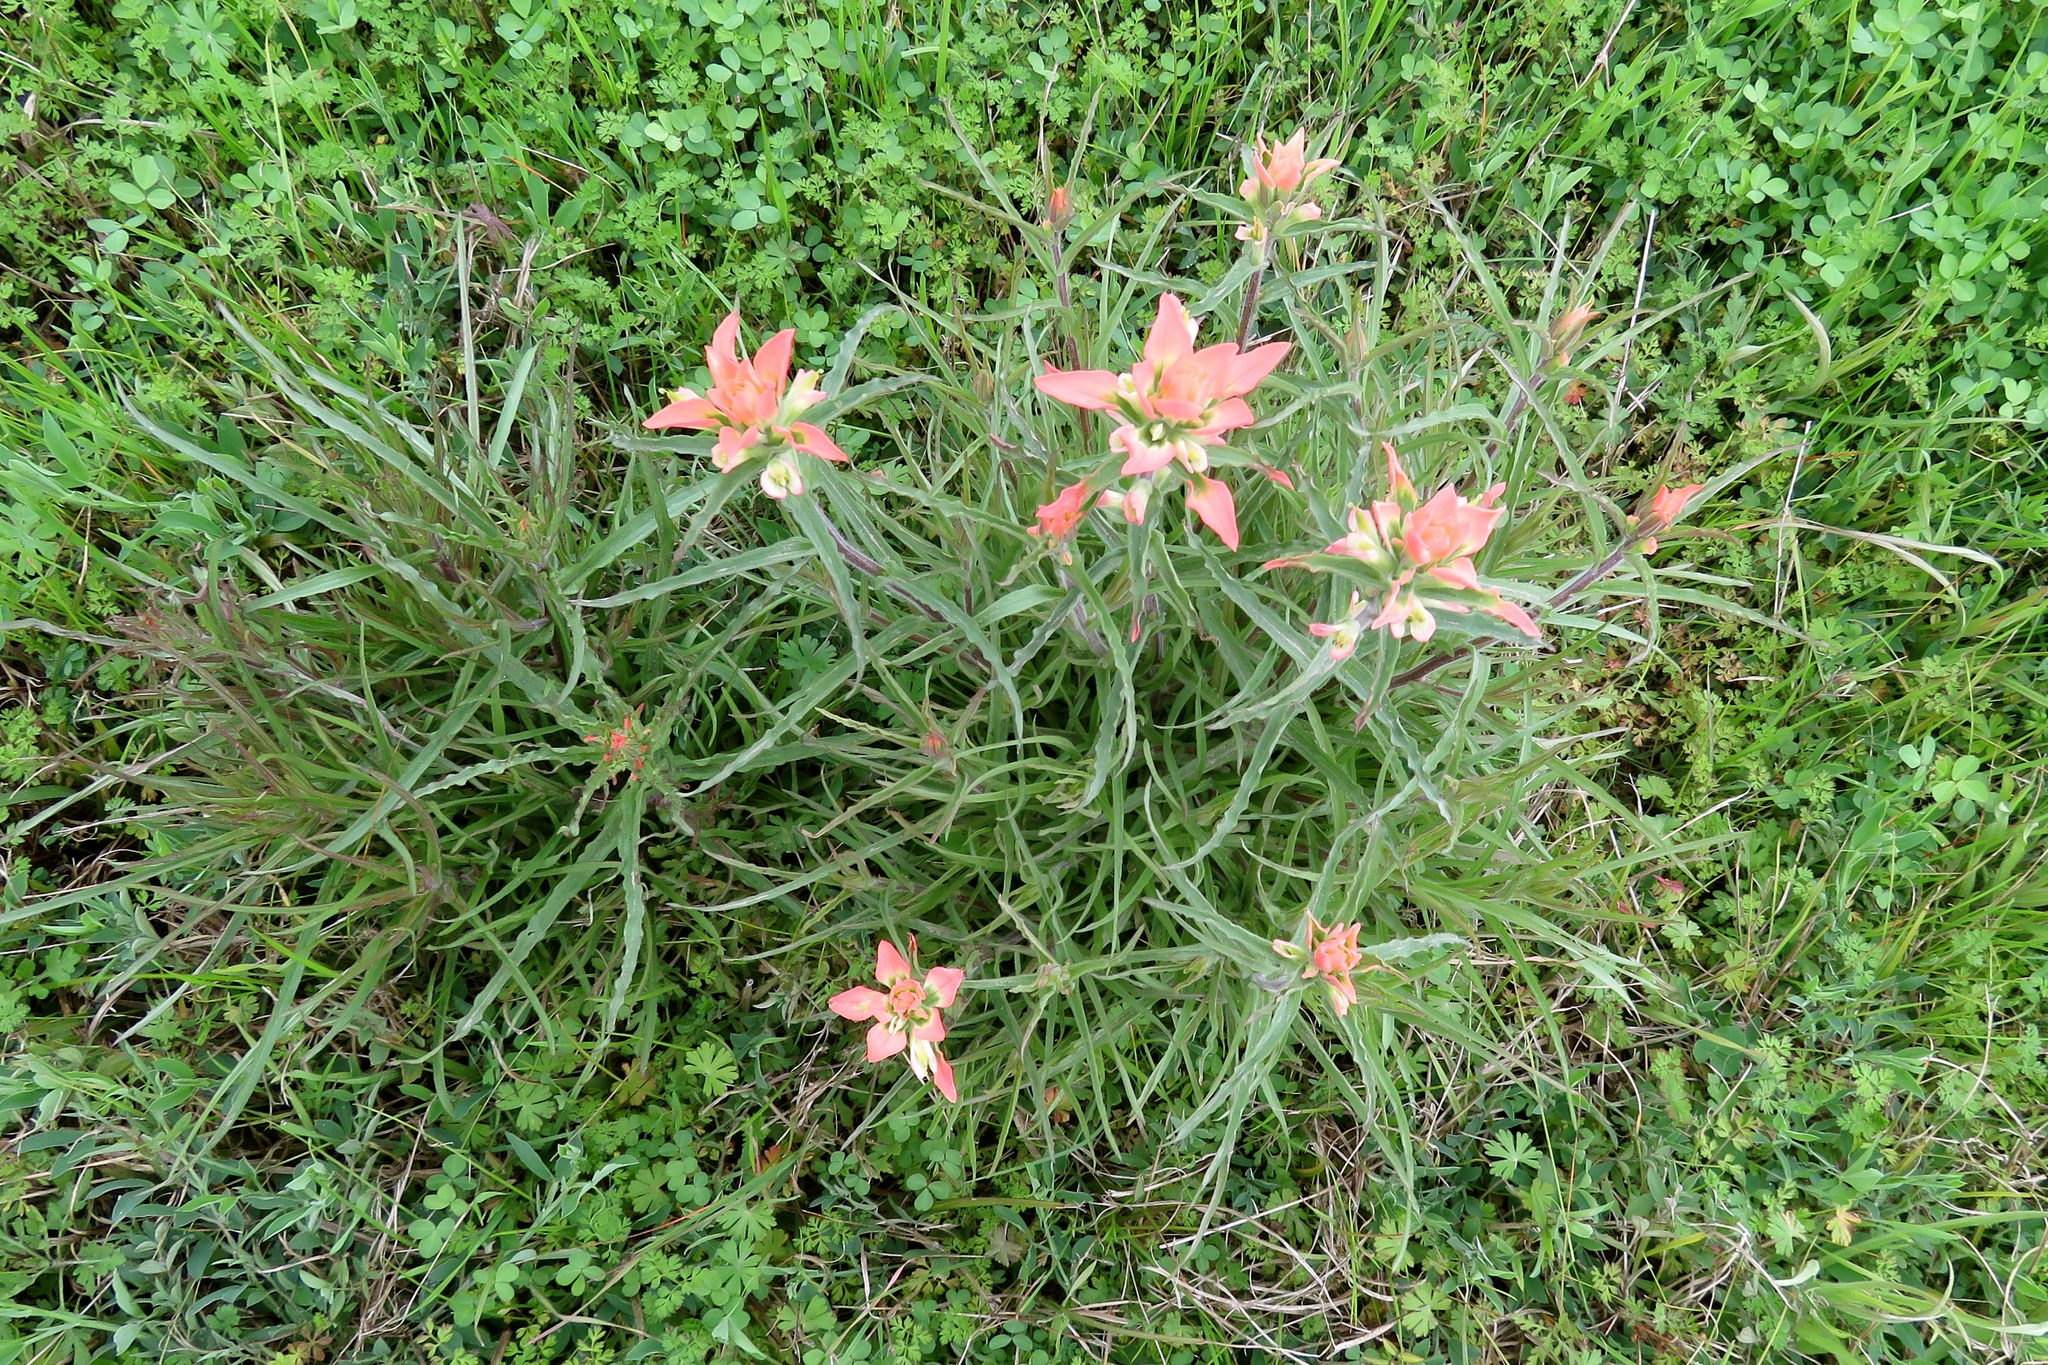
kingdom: Plantae
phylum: Tracheophyta
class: Magnoliopsida
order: Lamiales
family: Orobanchaceae
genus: Castilleja
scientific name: Castilleja indivisa
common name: Texas paintbrush
